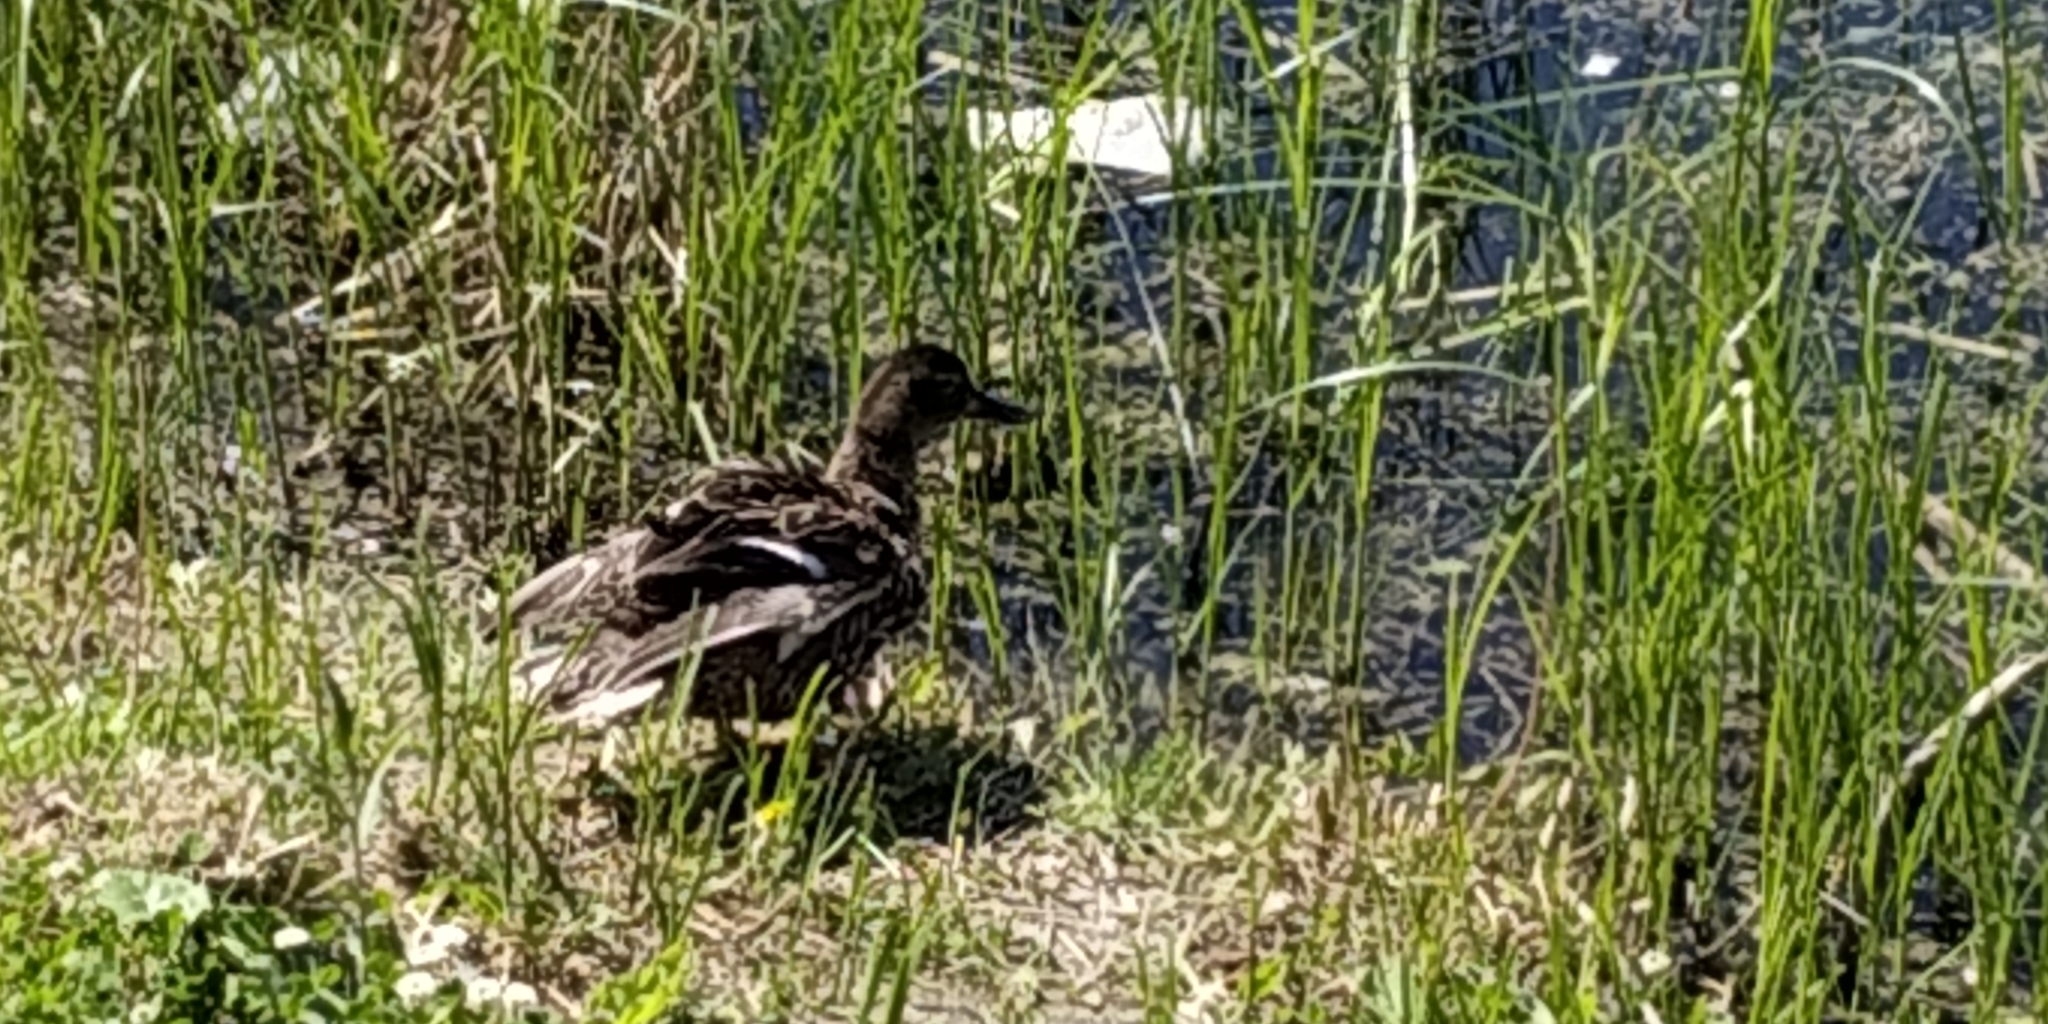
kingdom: Animalia
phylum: Chordata
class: Aves
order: Anseriformes
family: Anatidae
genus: Anas
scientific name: Anas platyrhynchos
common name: Mallard
